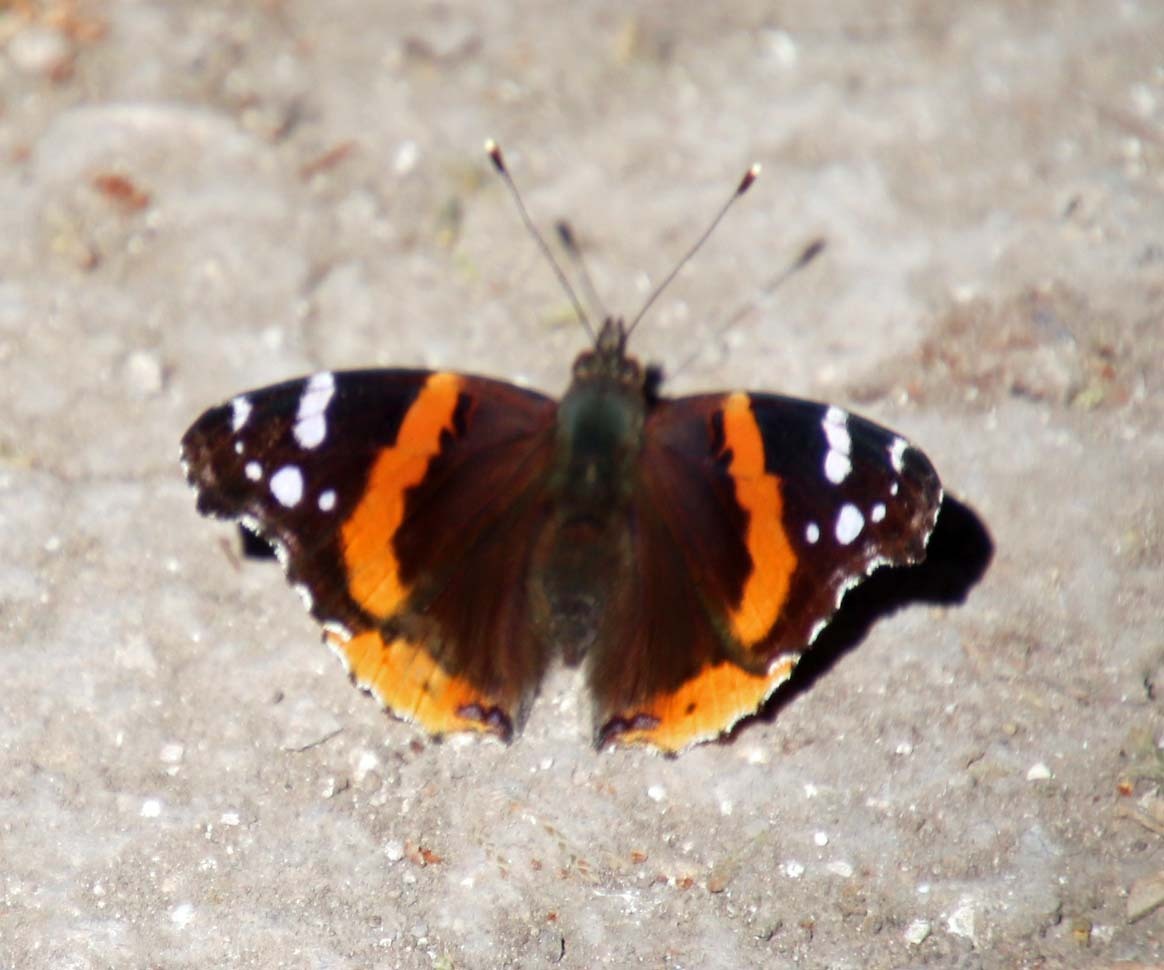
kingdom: Animalia
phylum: Arthropoda
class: Insecta
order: Lepidoptera
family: Nymphalidae
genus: Vanessa
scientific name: Vanessa atalanta
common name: Red admiral
